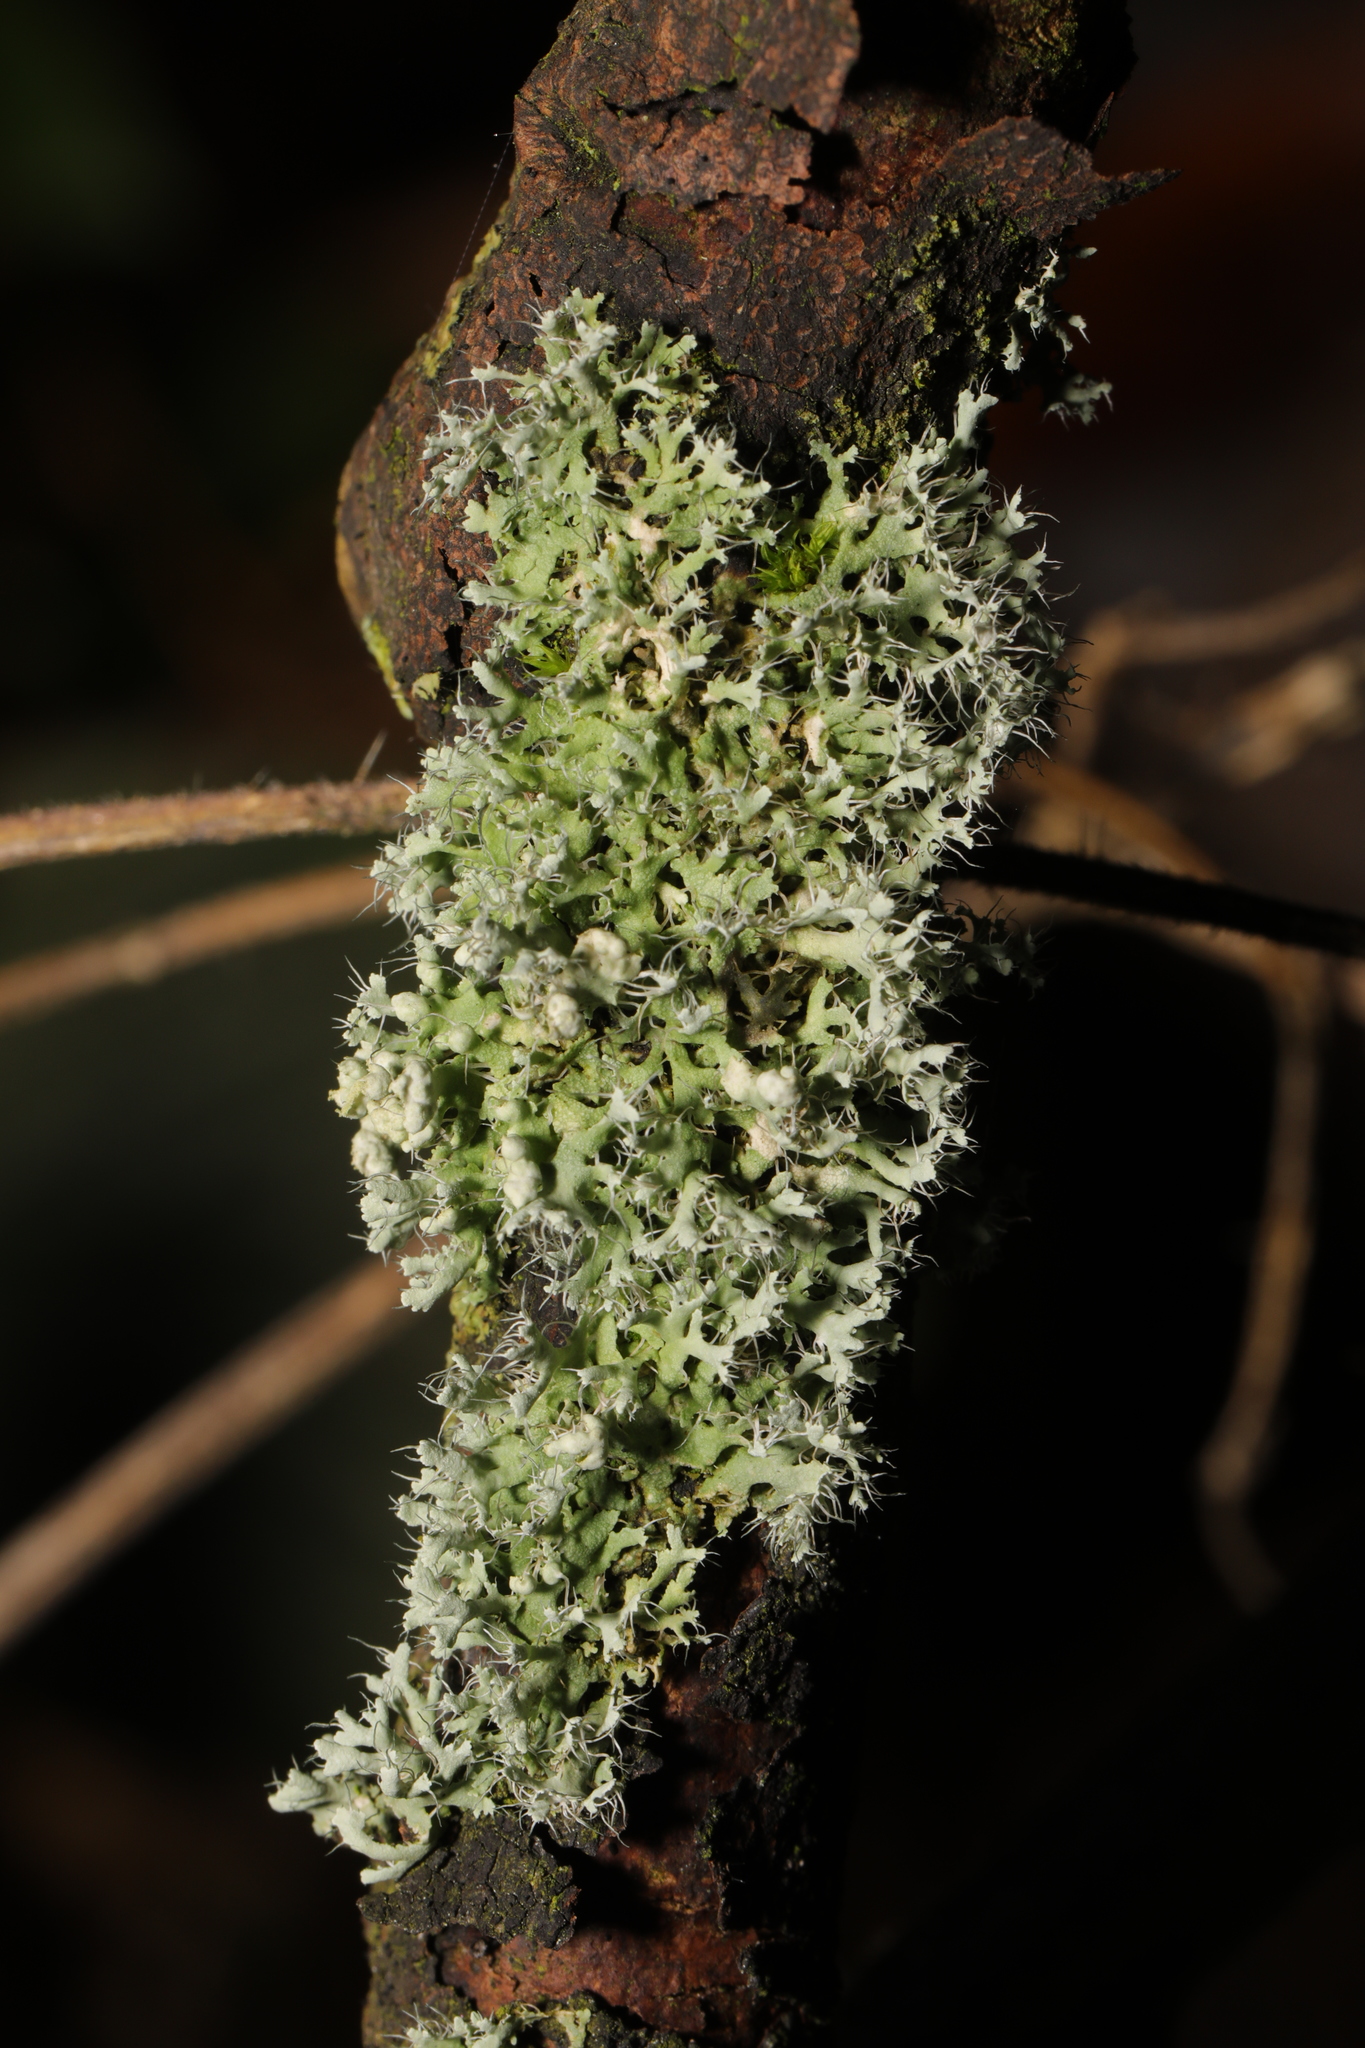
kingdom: Fungi
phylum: Ascomycota
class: Lecanoromycetes
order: Caliciales
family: Physciaceae
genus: Physcia
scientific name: Physcia adscendens
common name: Hooded rosette lichen
